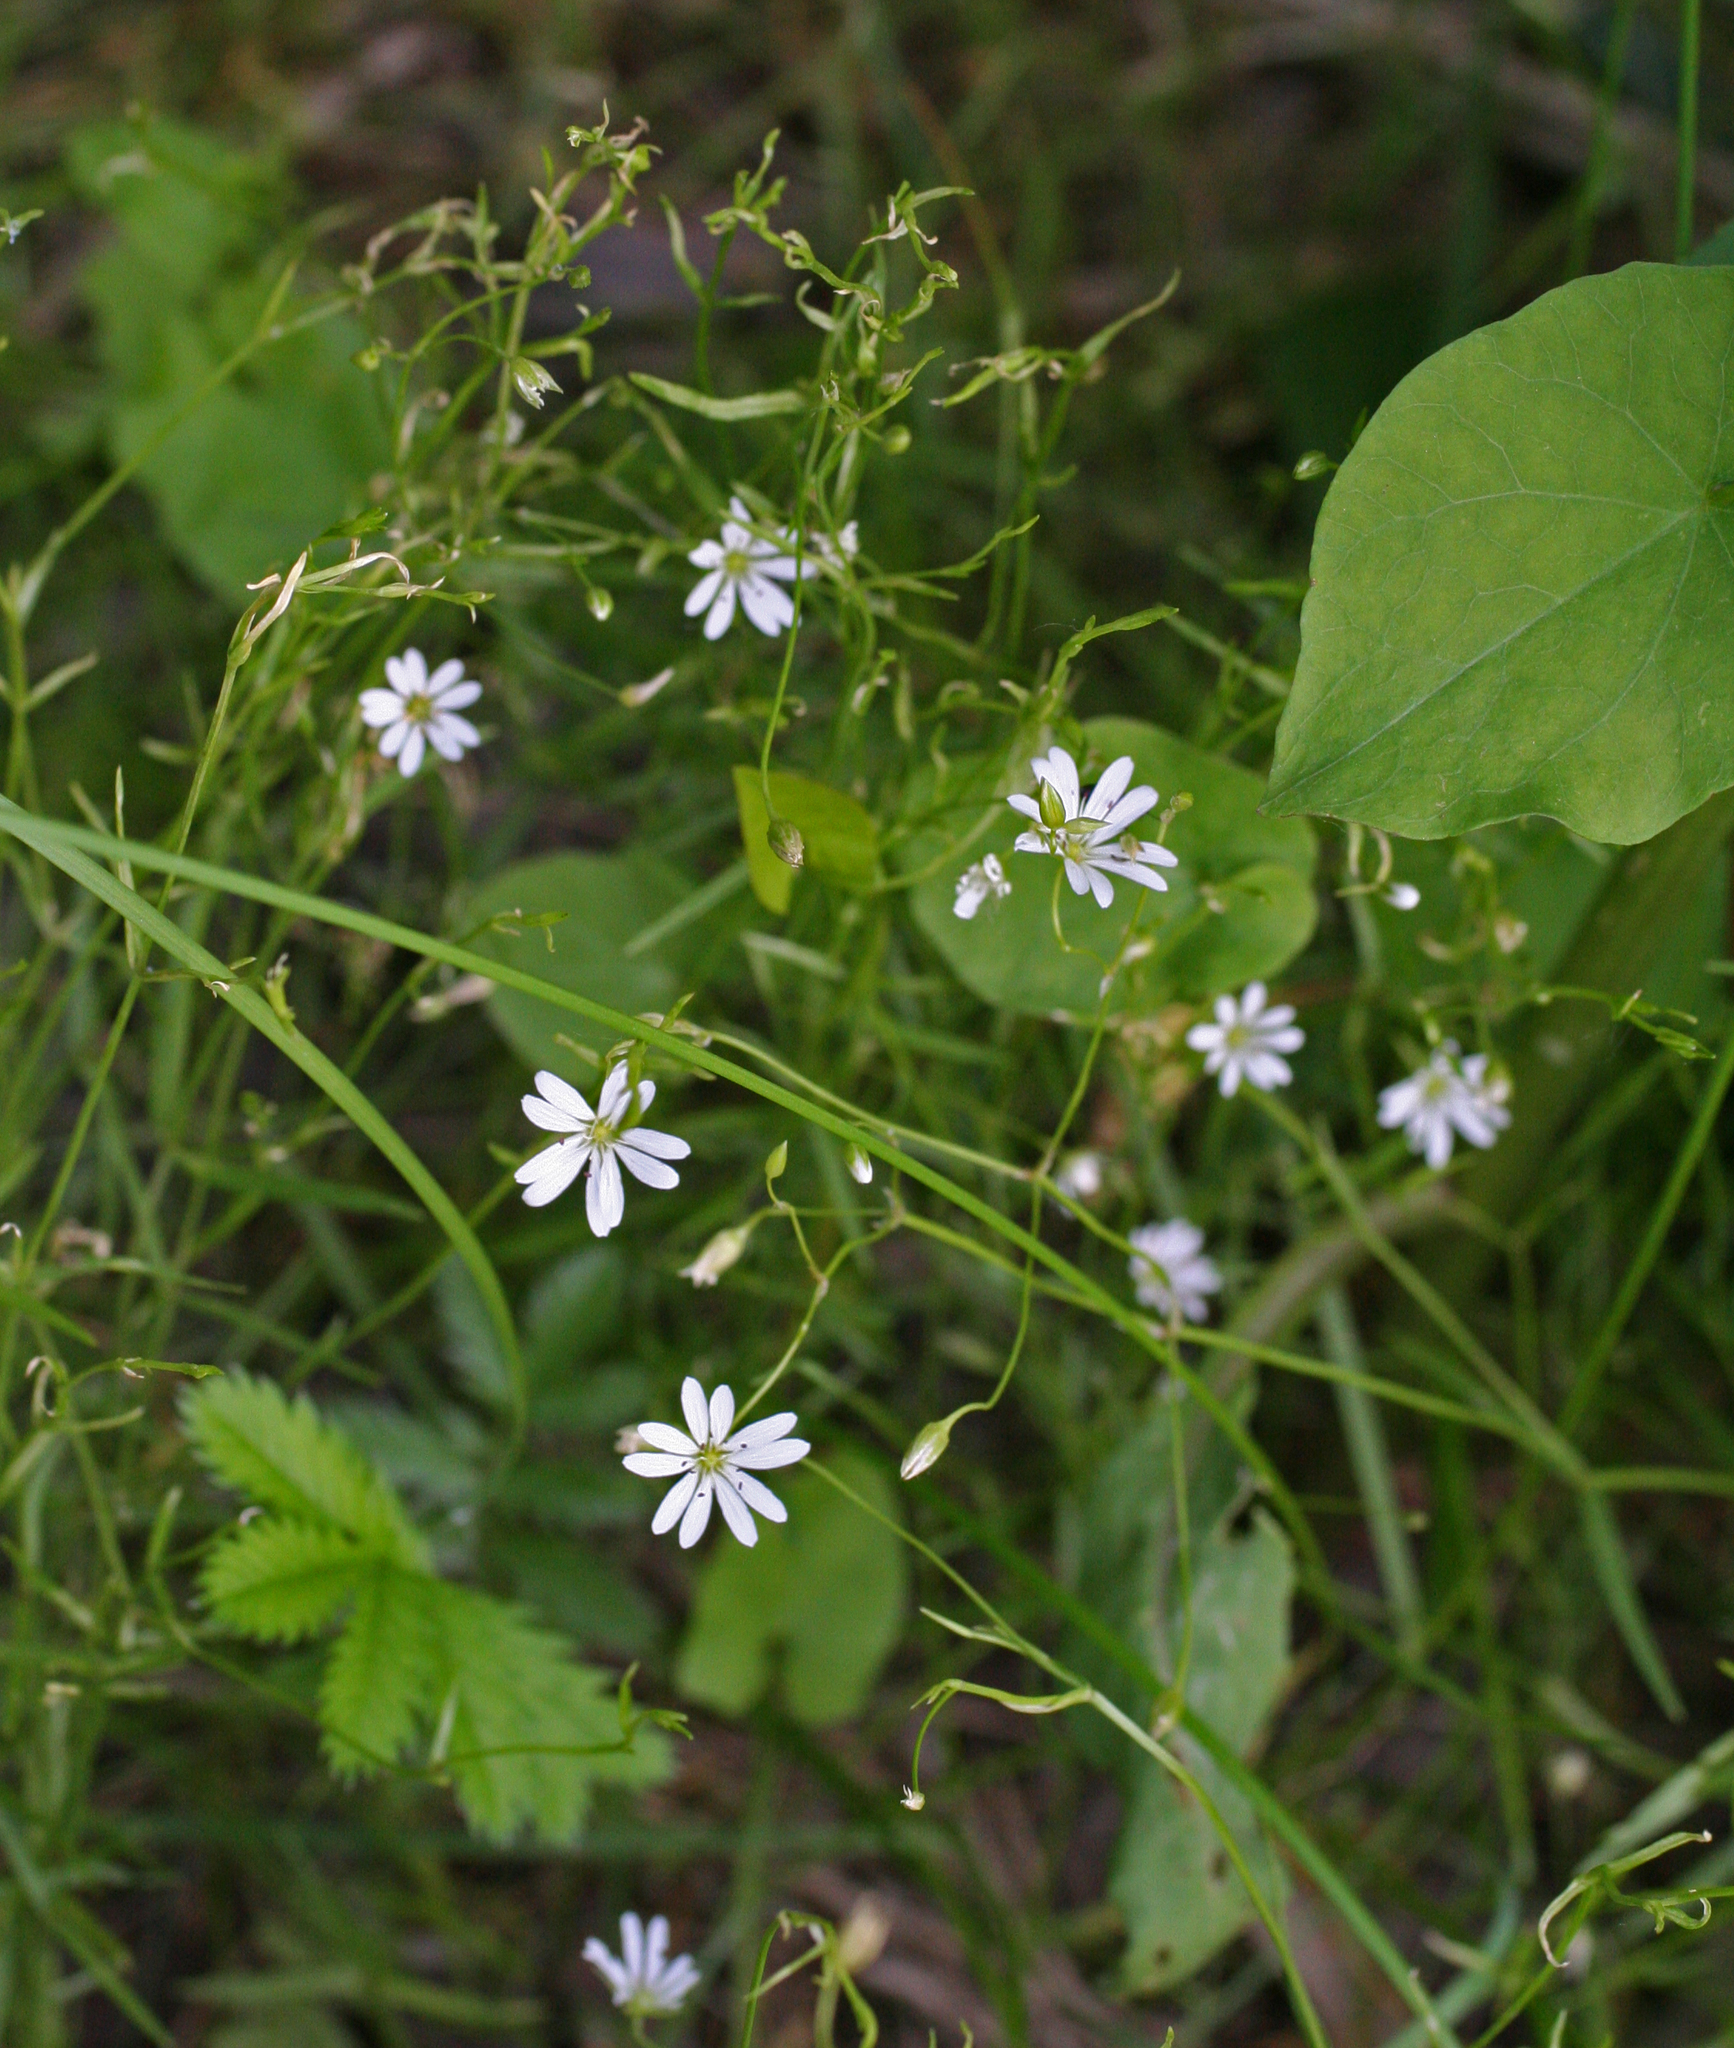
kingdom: Plantae
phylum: Tracheophyta
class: Magnoliopsida
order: Caryophyllales
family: Caryophyllaceae
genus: Stellaria
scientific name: Stellaria graminea
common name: Grass-like starwort
